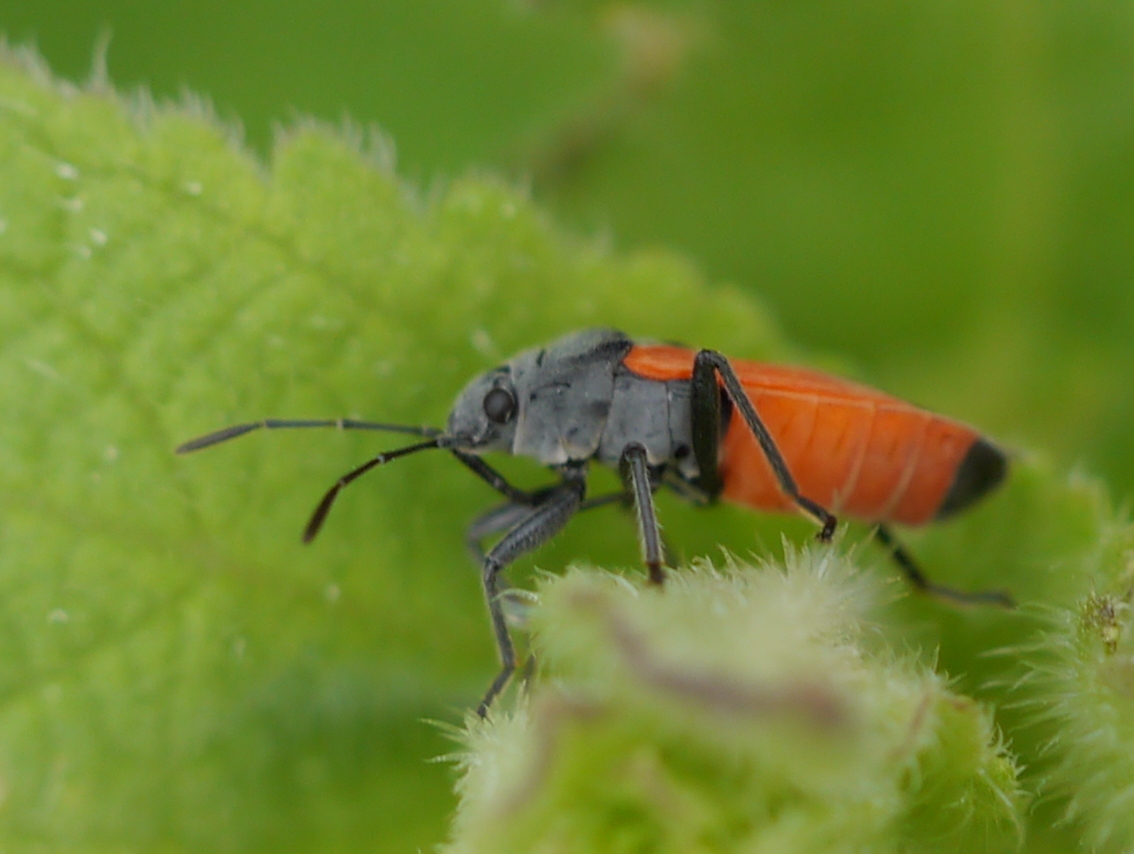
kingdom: Animalia
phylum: Arthropoda
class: Insecta
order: Hemiptera
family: Lygaeidae
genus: Melanopleurus
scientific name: Melanopleurus belfragei
